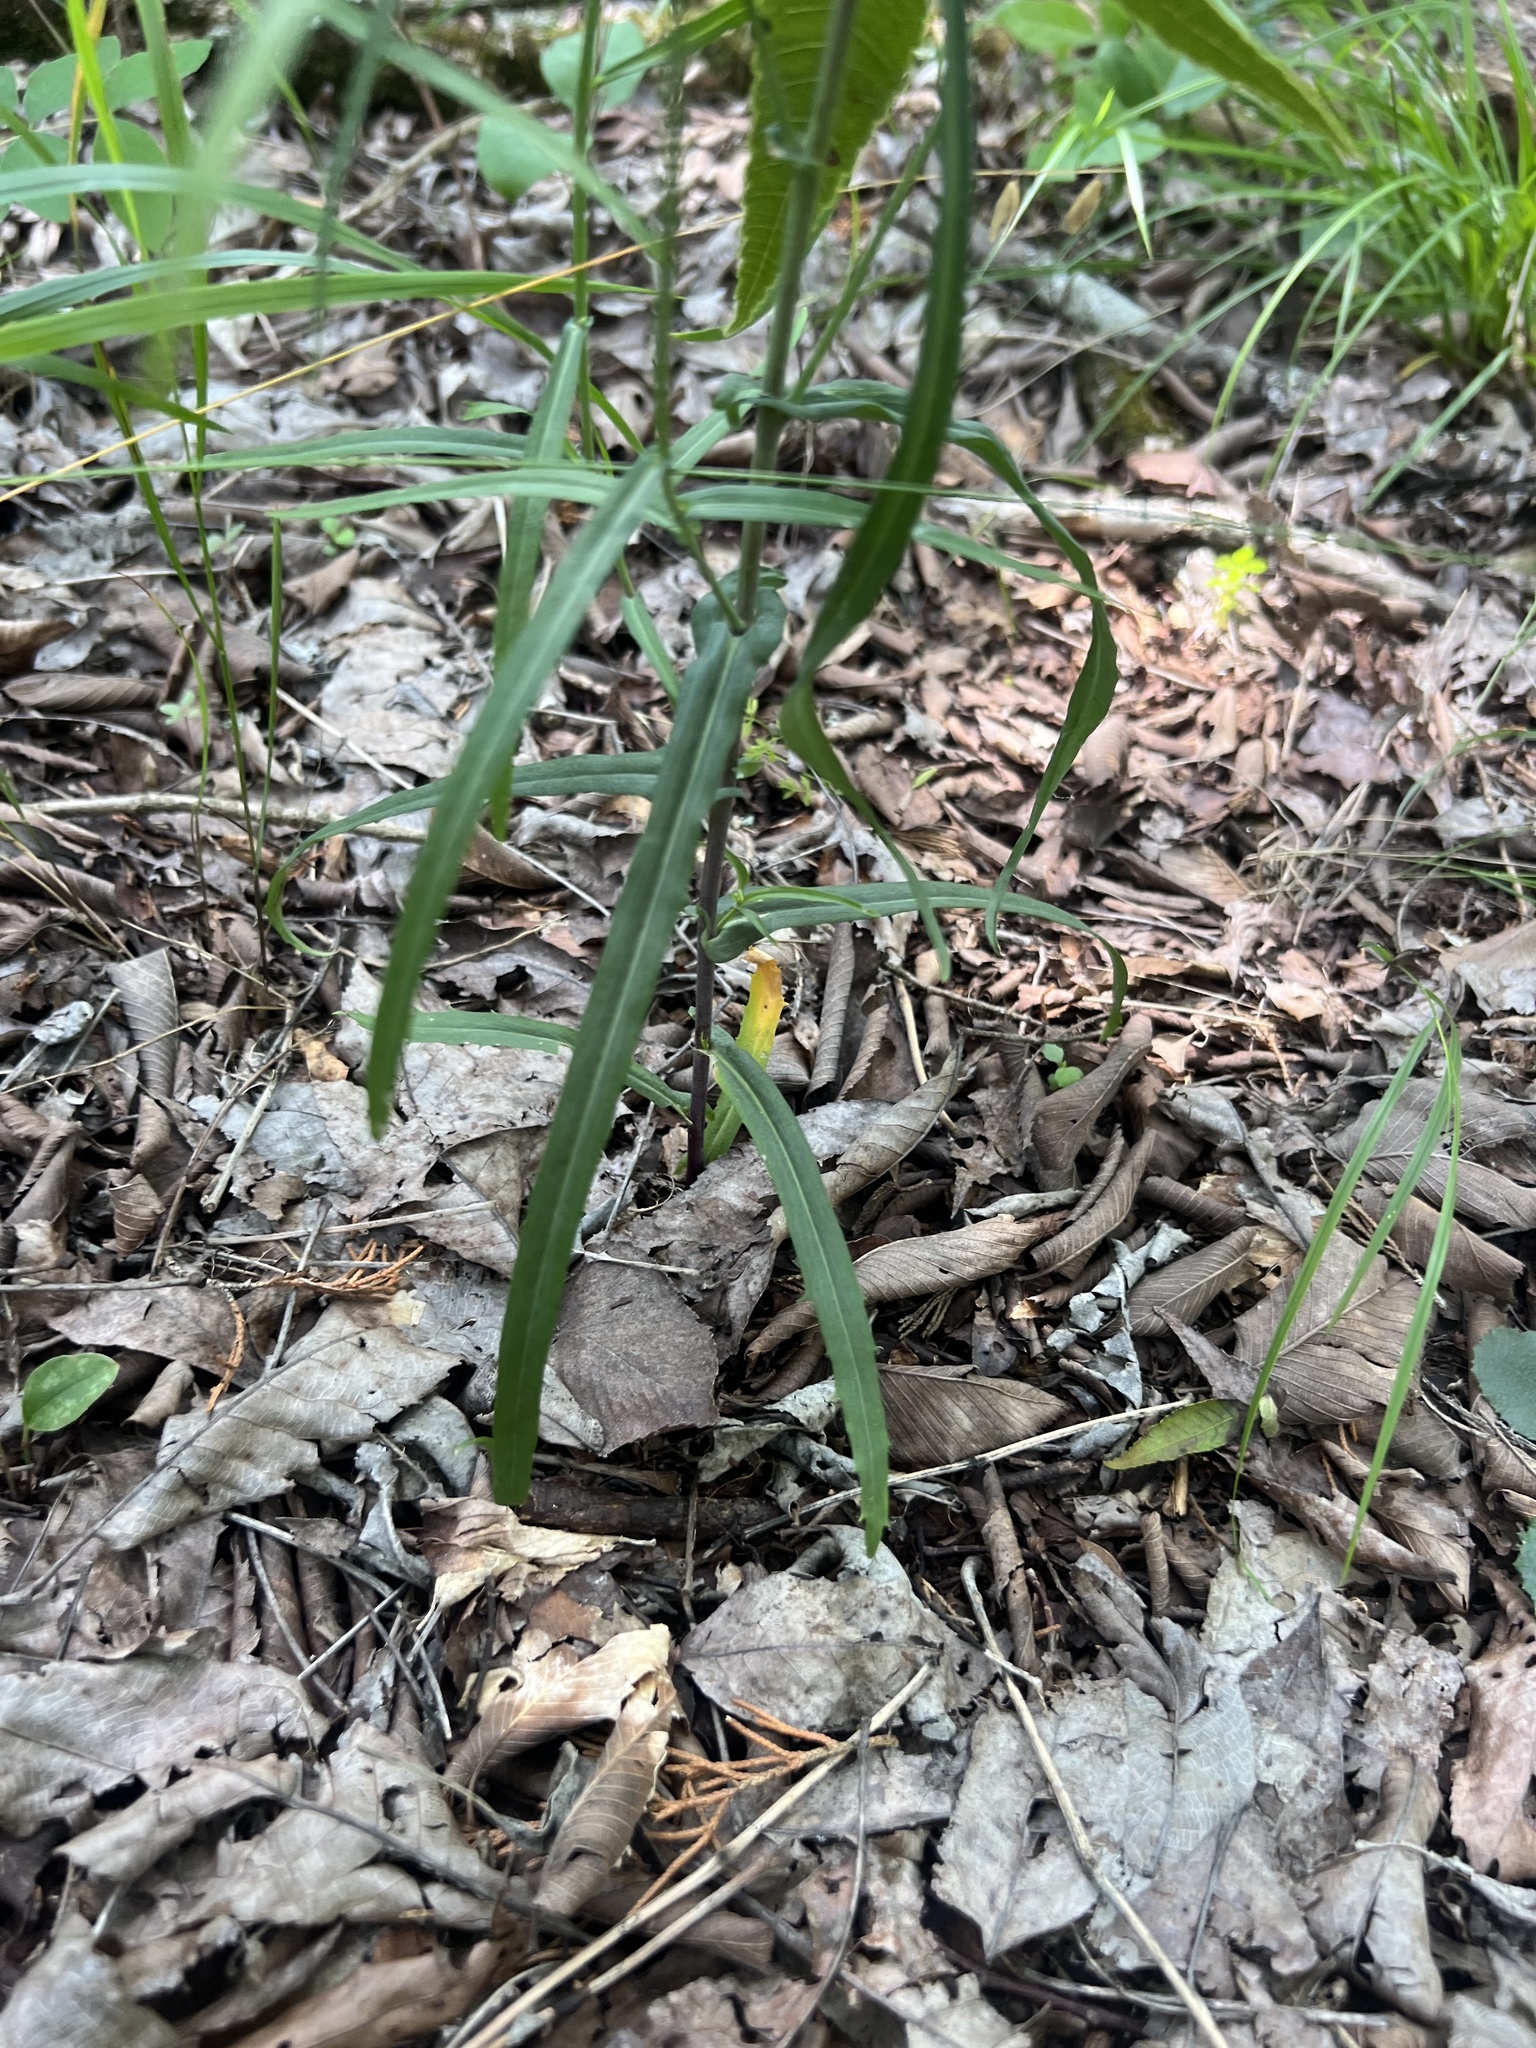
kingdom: Plantae
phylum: Tracheophyta
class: Magnoliopsida
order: Brassicales
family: Brassicaceae
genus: Borodinia
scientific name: Borodinia laevigata
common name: Smooth rockcress
